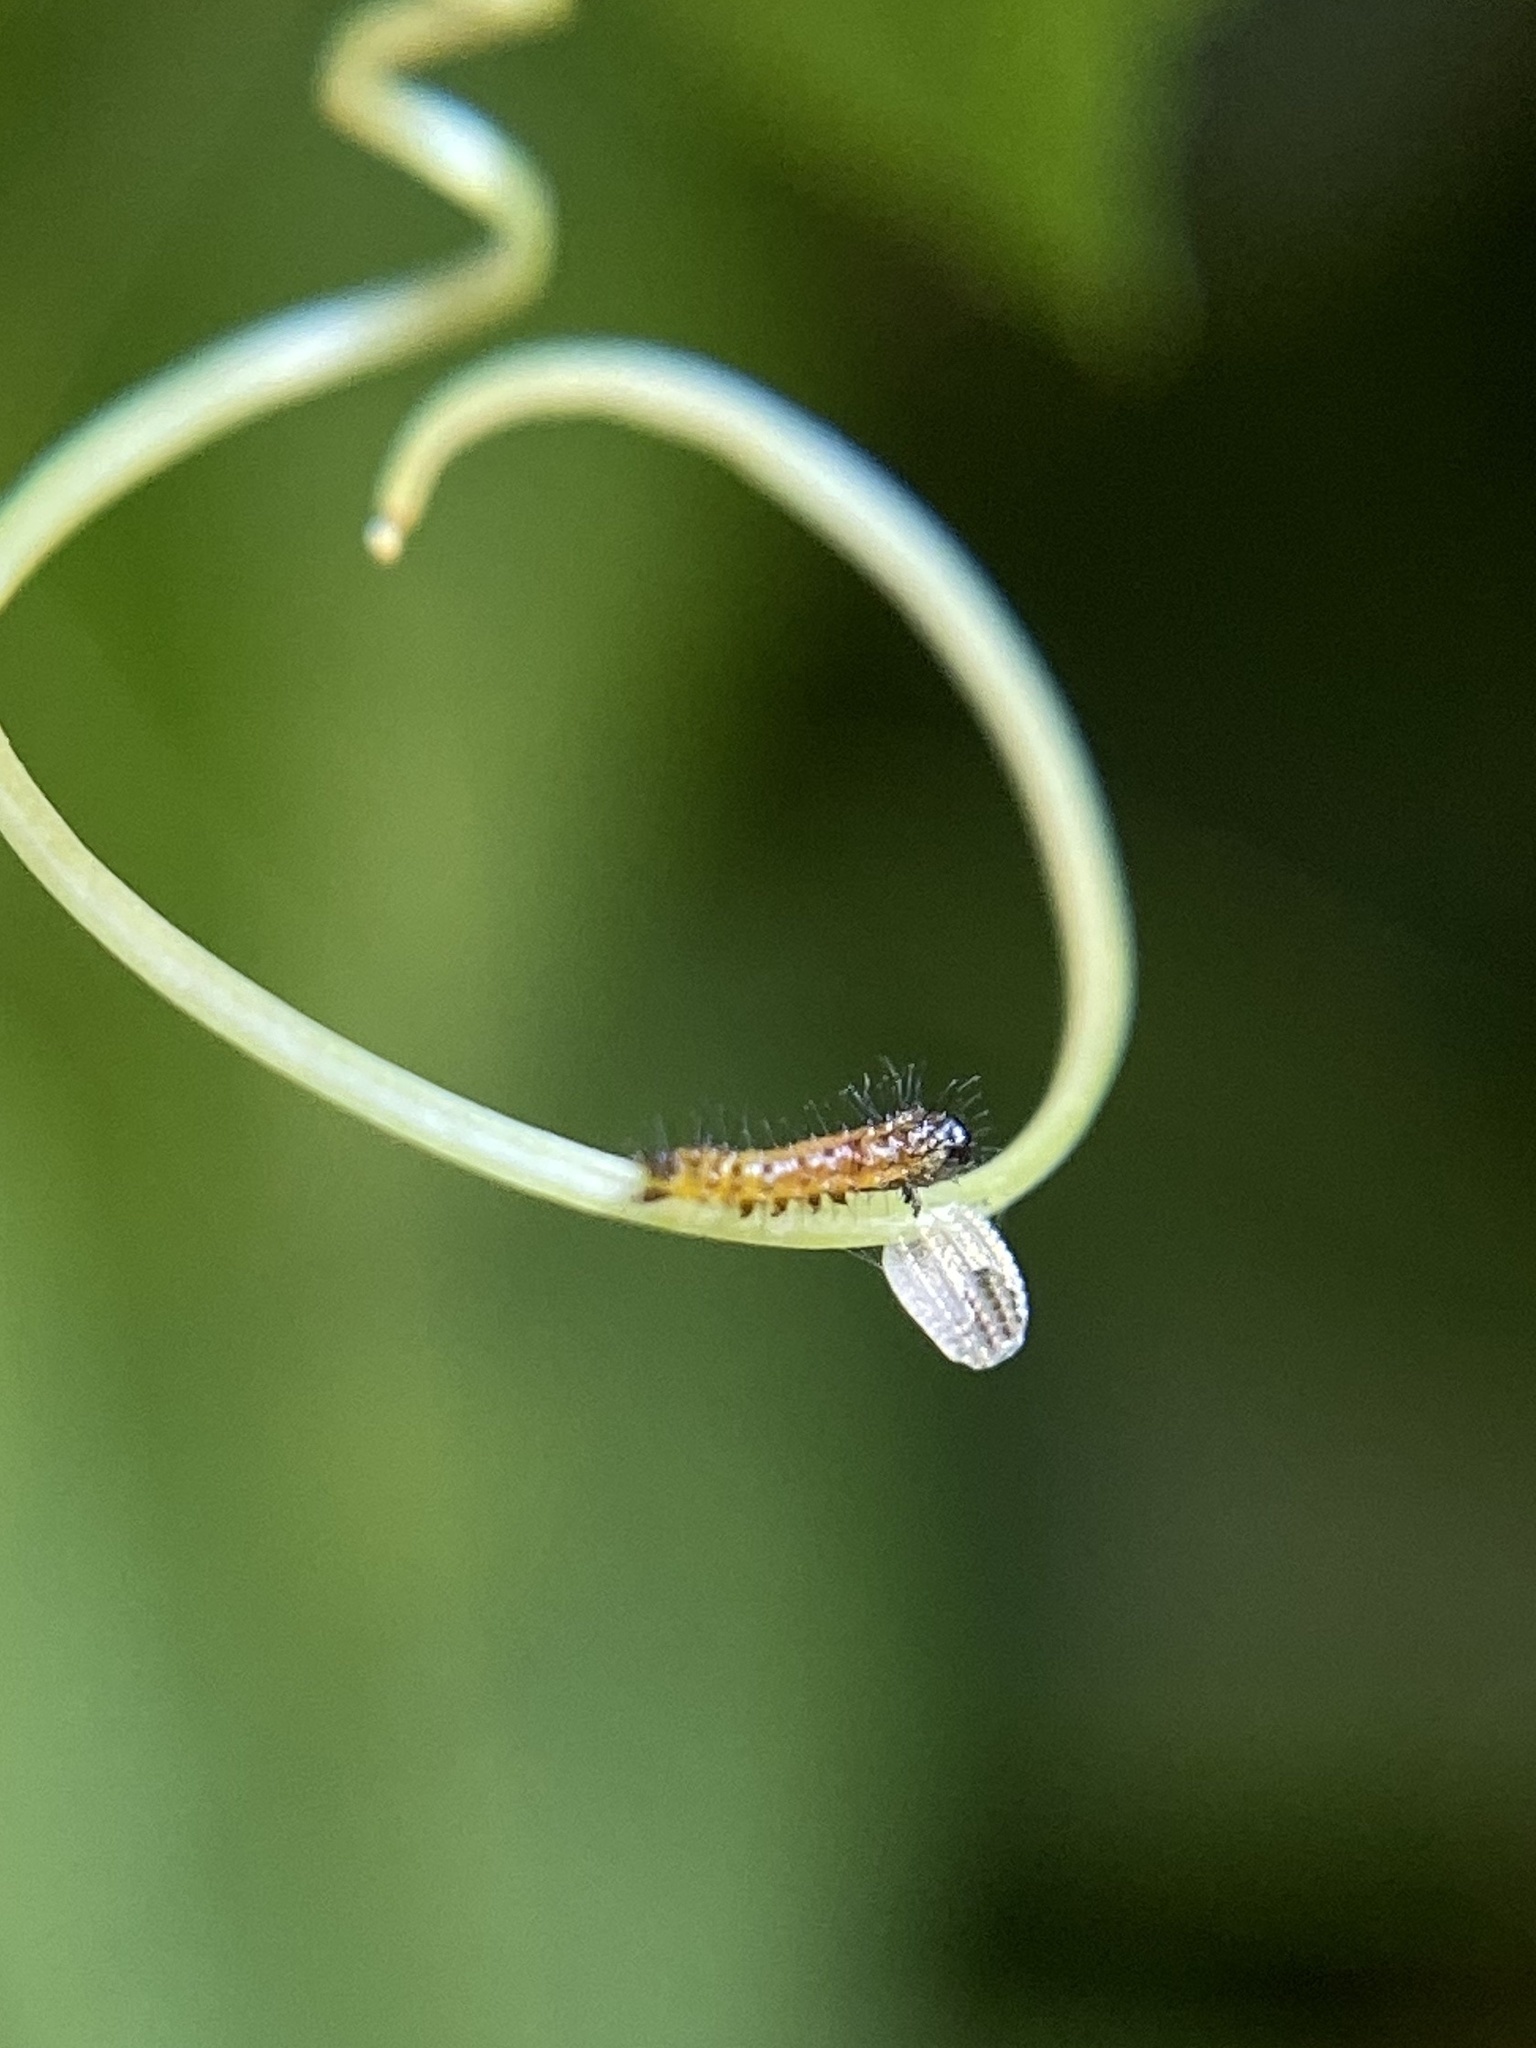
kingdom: Animalia
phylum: Arthropoda
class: Insecta
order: Lepidoptera
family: Nymphalidae
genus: Dione
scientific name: Dione vanillae
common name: Gulf fritillary
